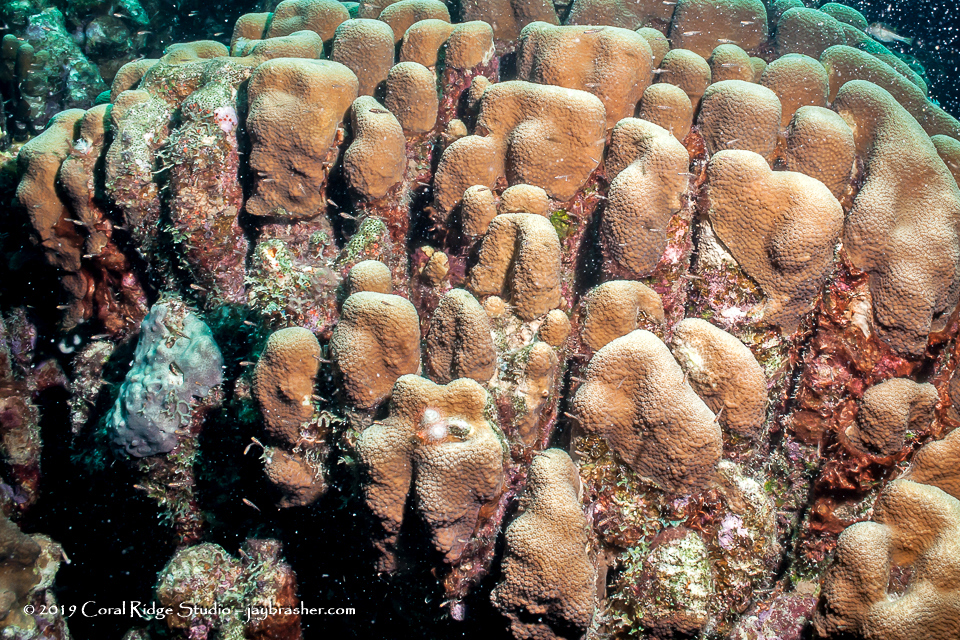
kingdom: Animalia
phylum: Cnidaria
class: Anthozoa
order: Scleractinia
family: Merulinidae
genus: Orbicella
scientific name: Orbicella annularis
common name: Boulder star coral
